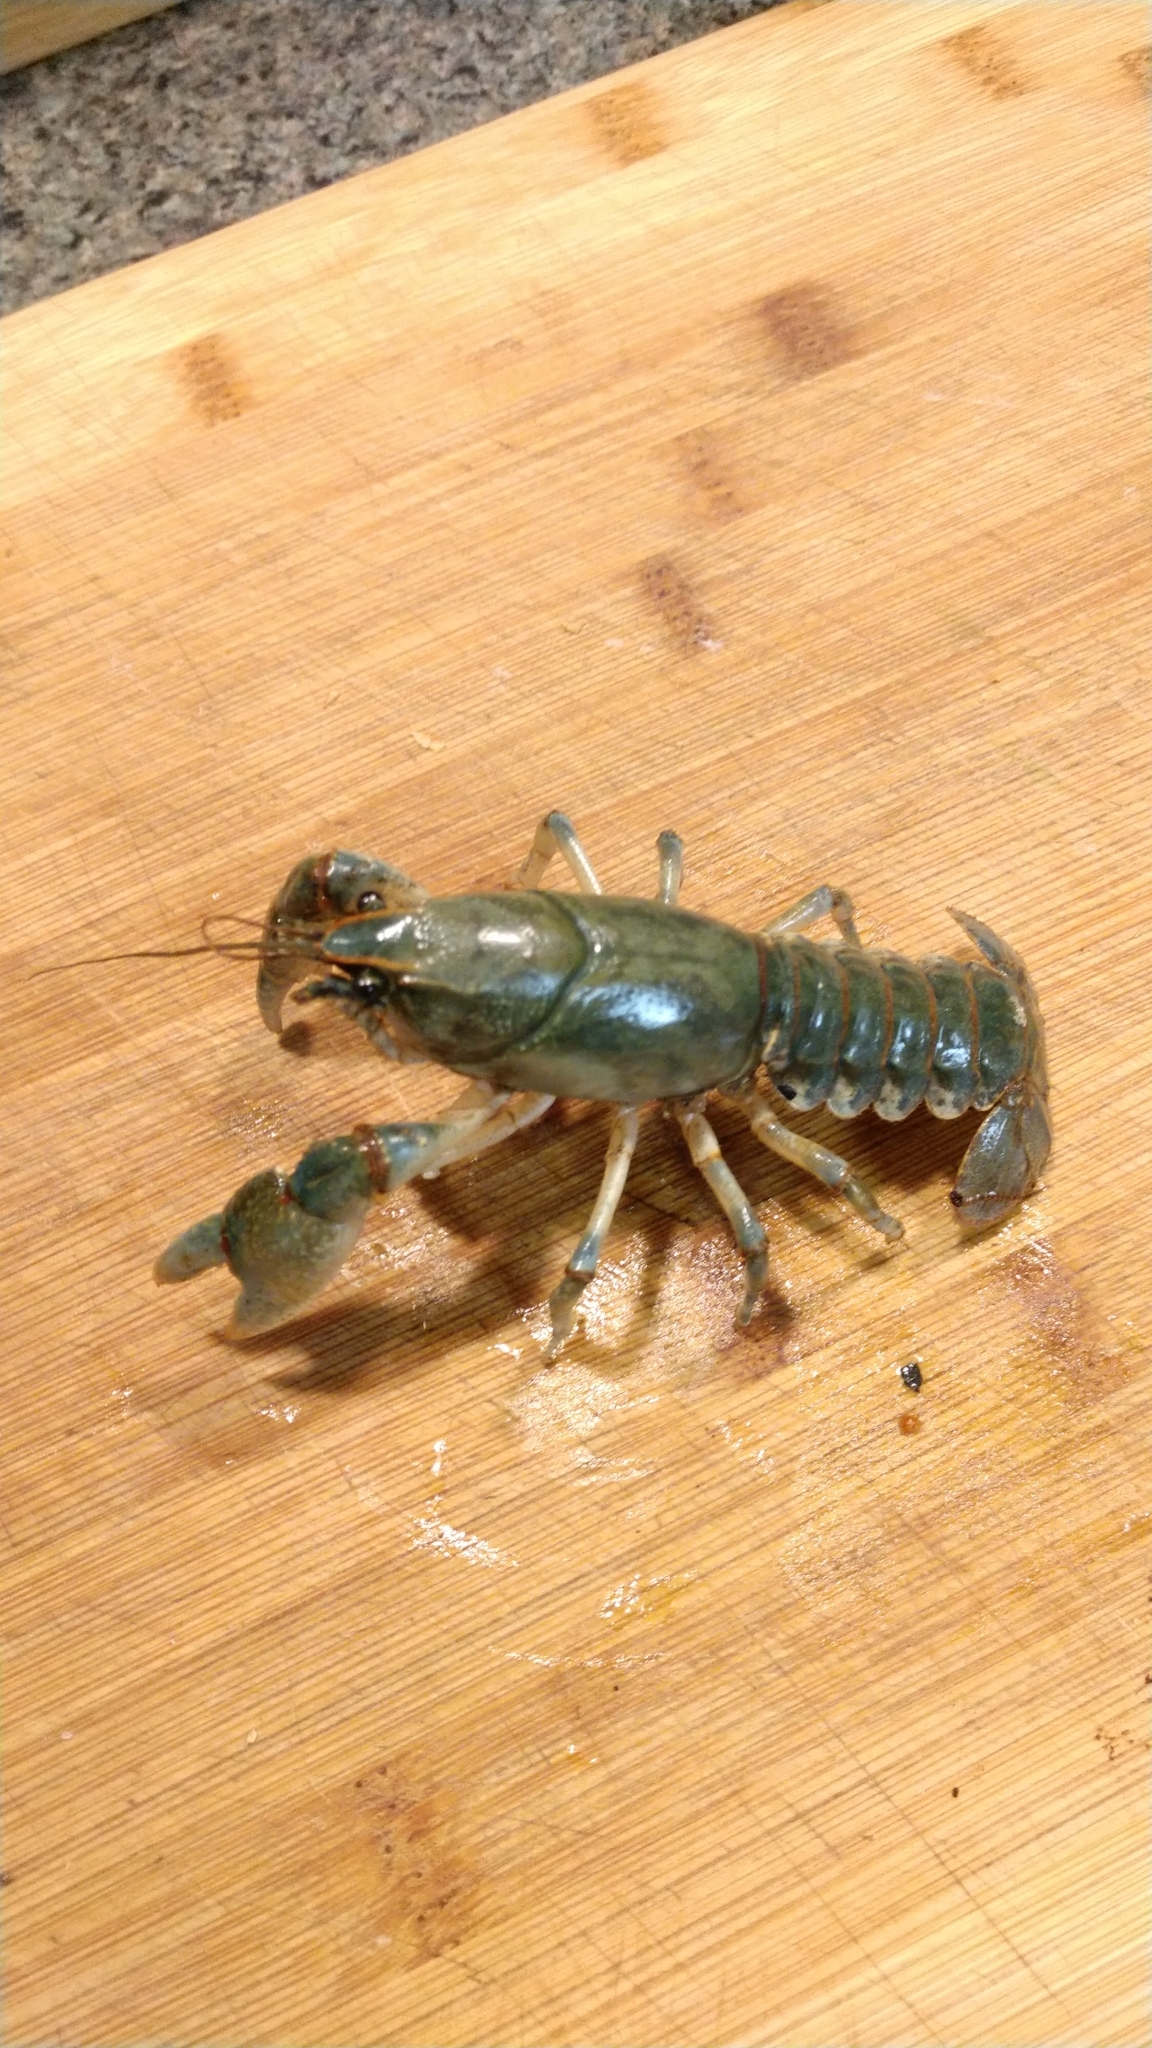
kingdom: Animalia
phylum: Arthropoda
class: Malacostraca
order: Decapoda
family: Cambaridae
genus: Lacunicambarus
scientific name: Lacunicambarus polychromatus
